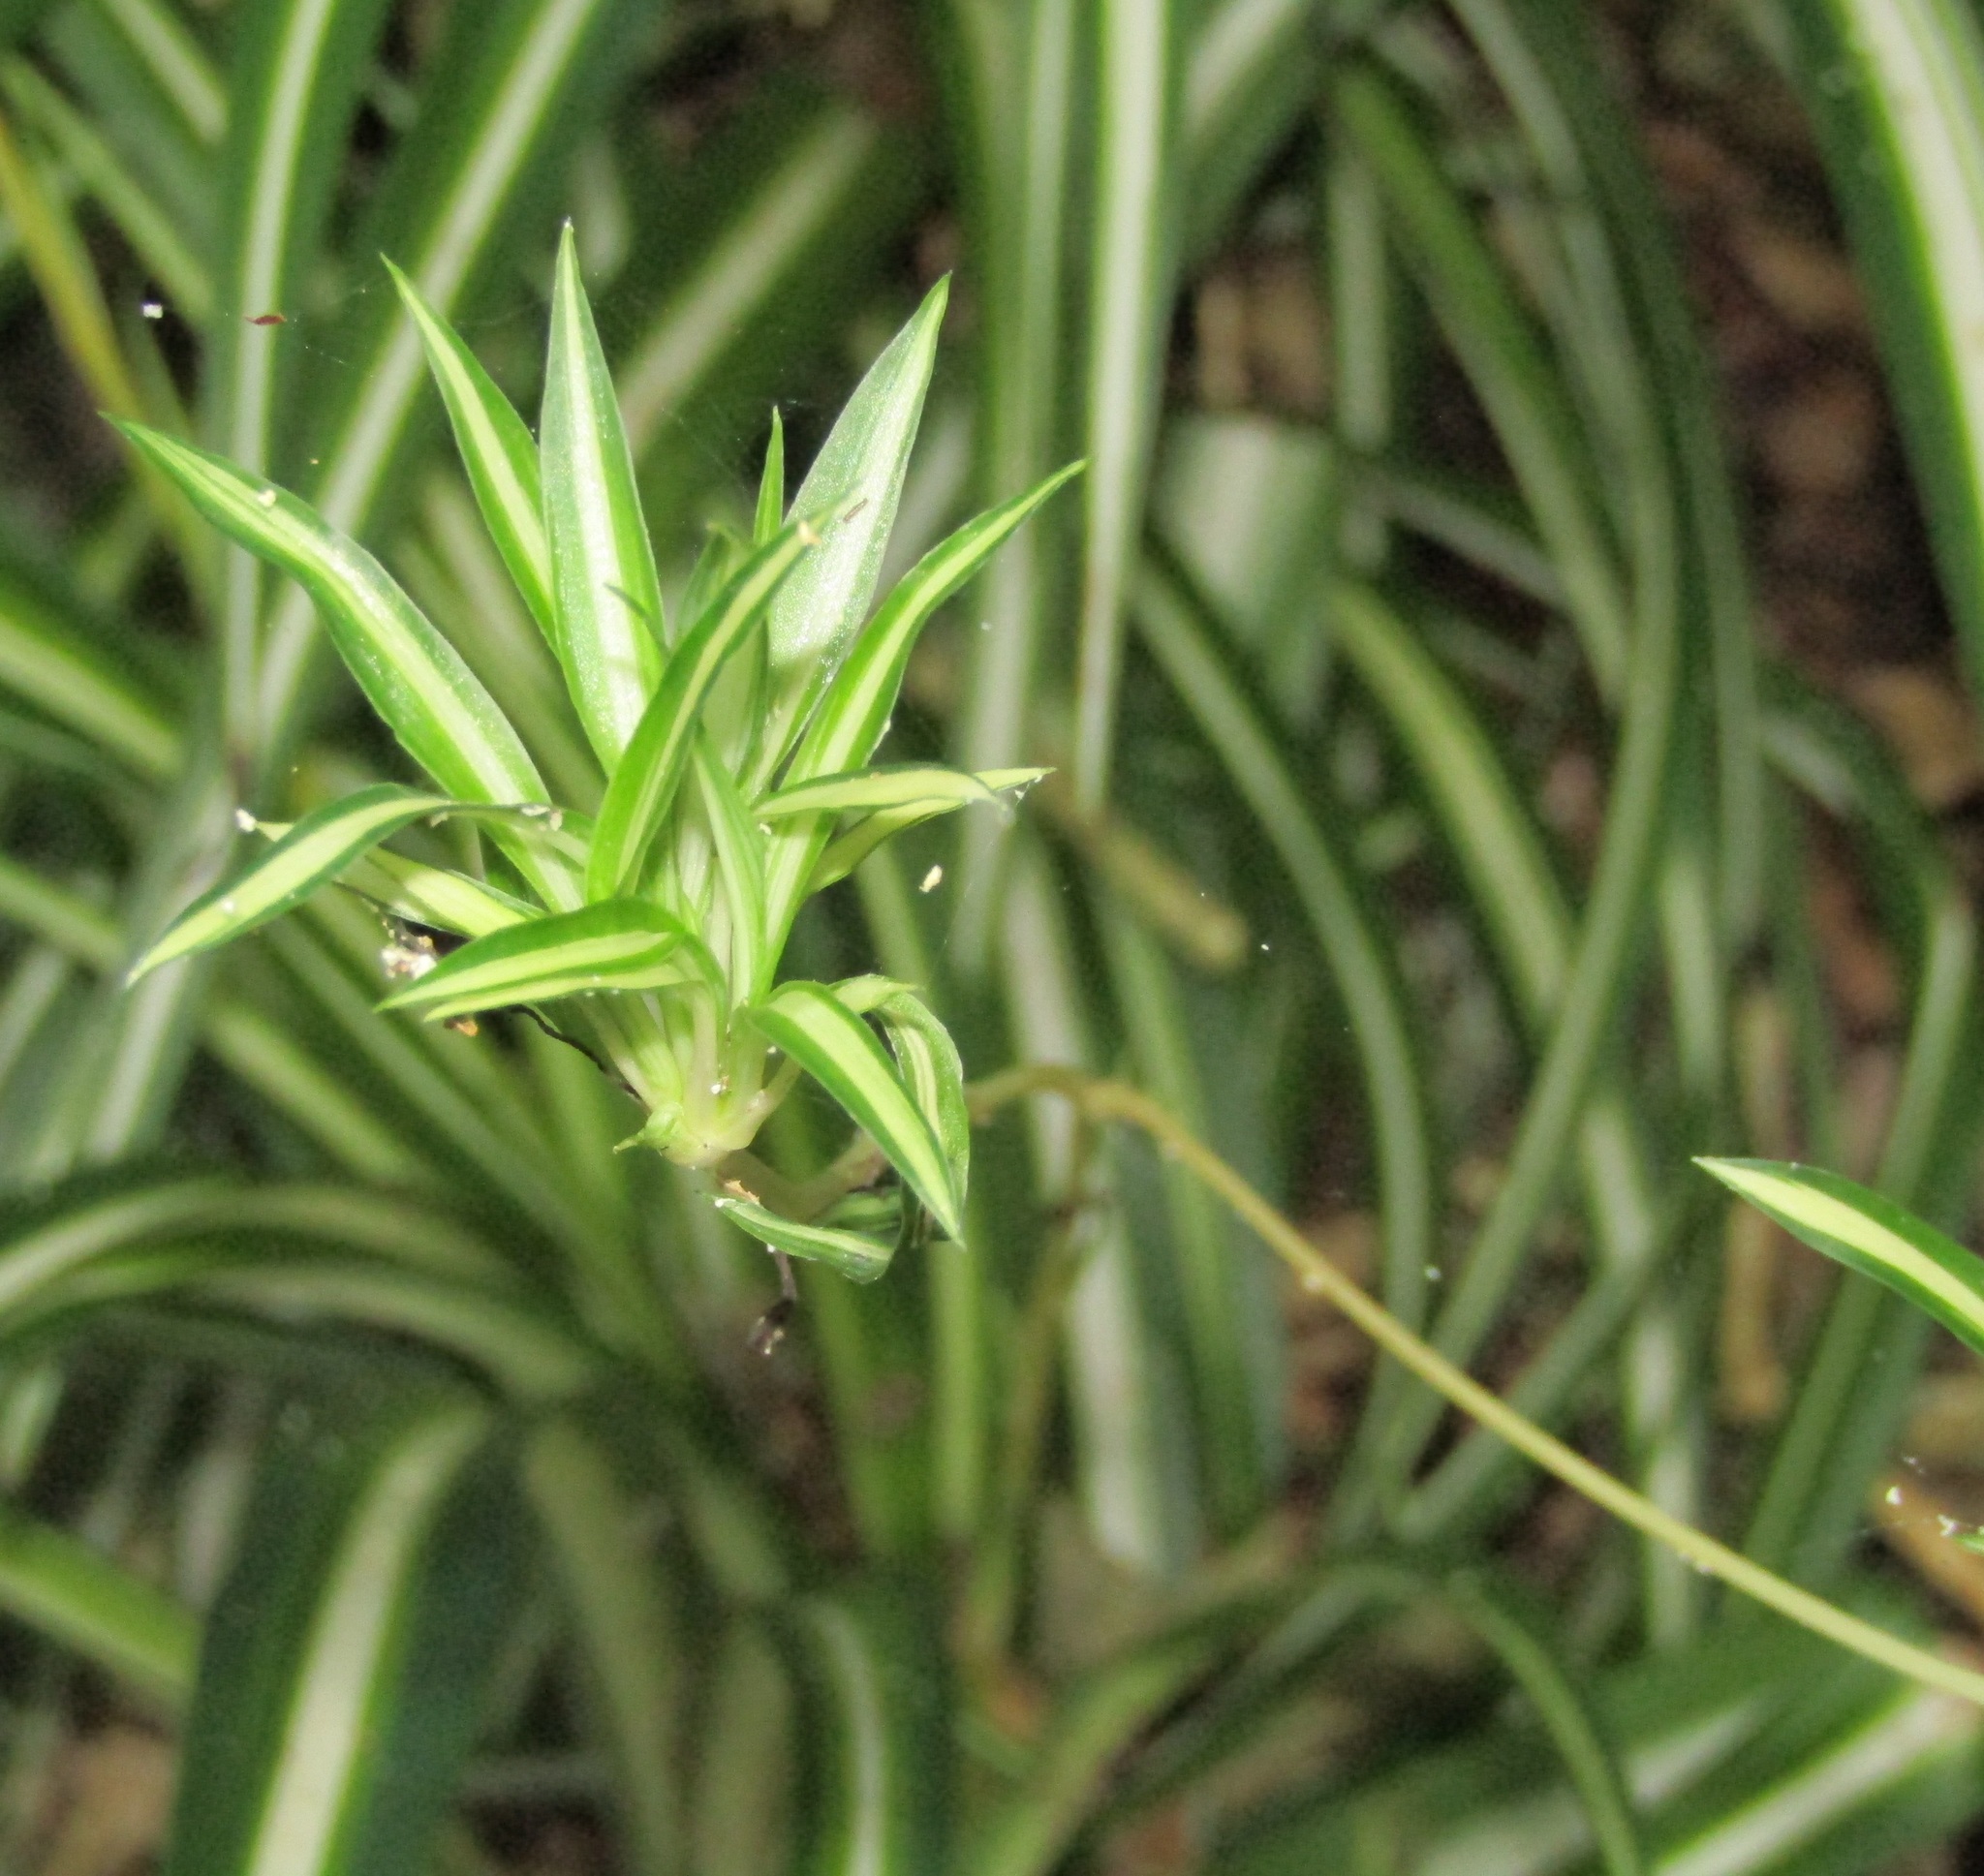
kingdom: Plantae
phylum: Tracheophyta
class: Liliopsida
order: Asparagales
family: Asparagaceae
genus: Chlorophytum
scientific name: Chlorophytum comosum
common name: Spider plant
